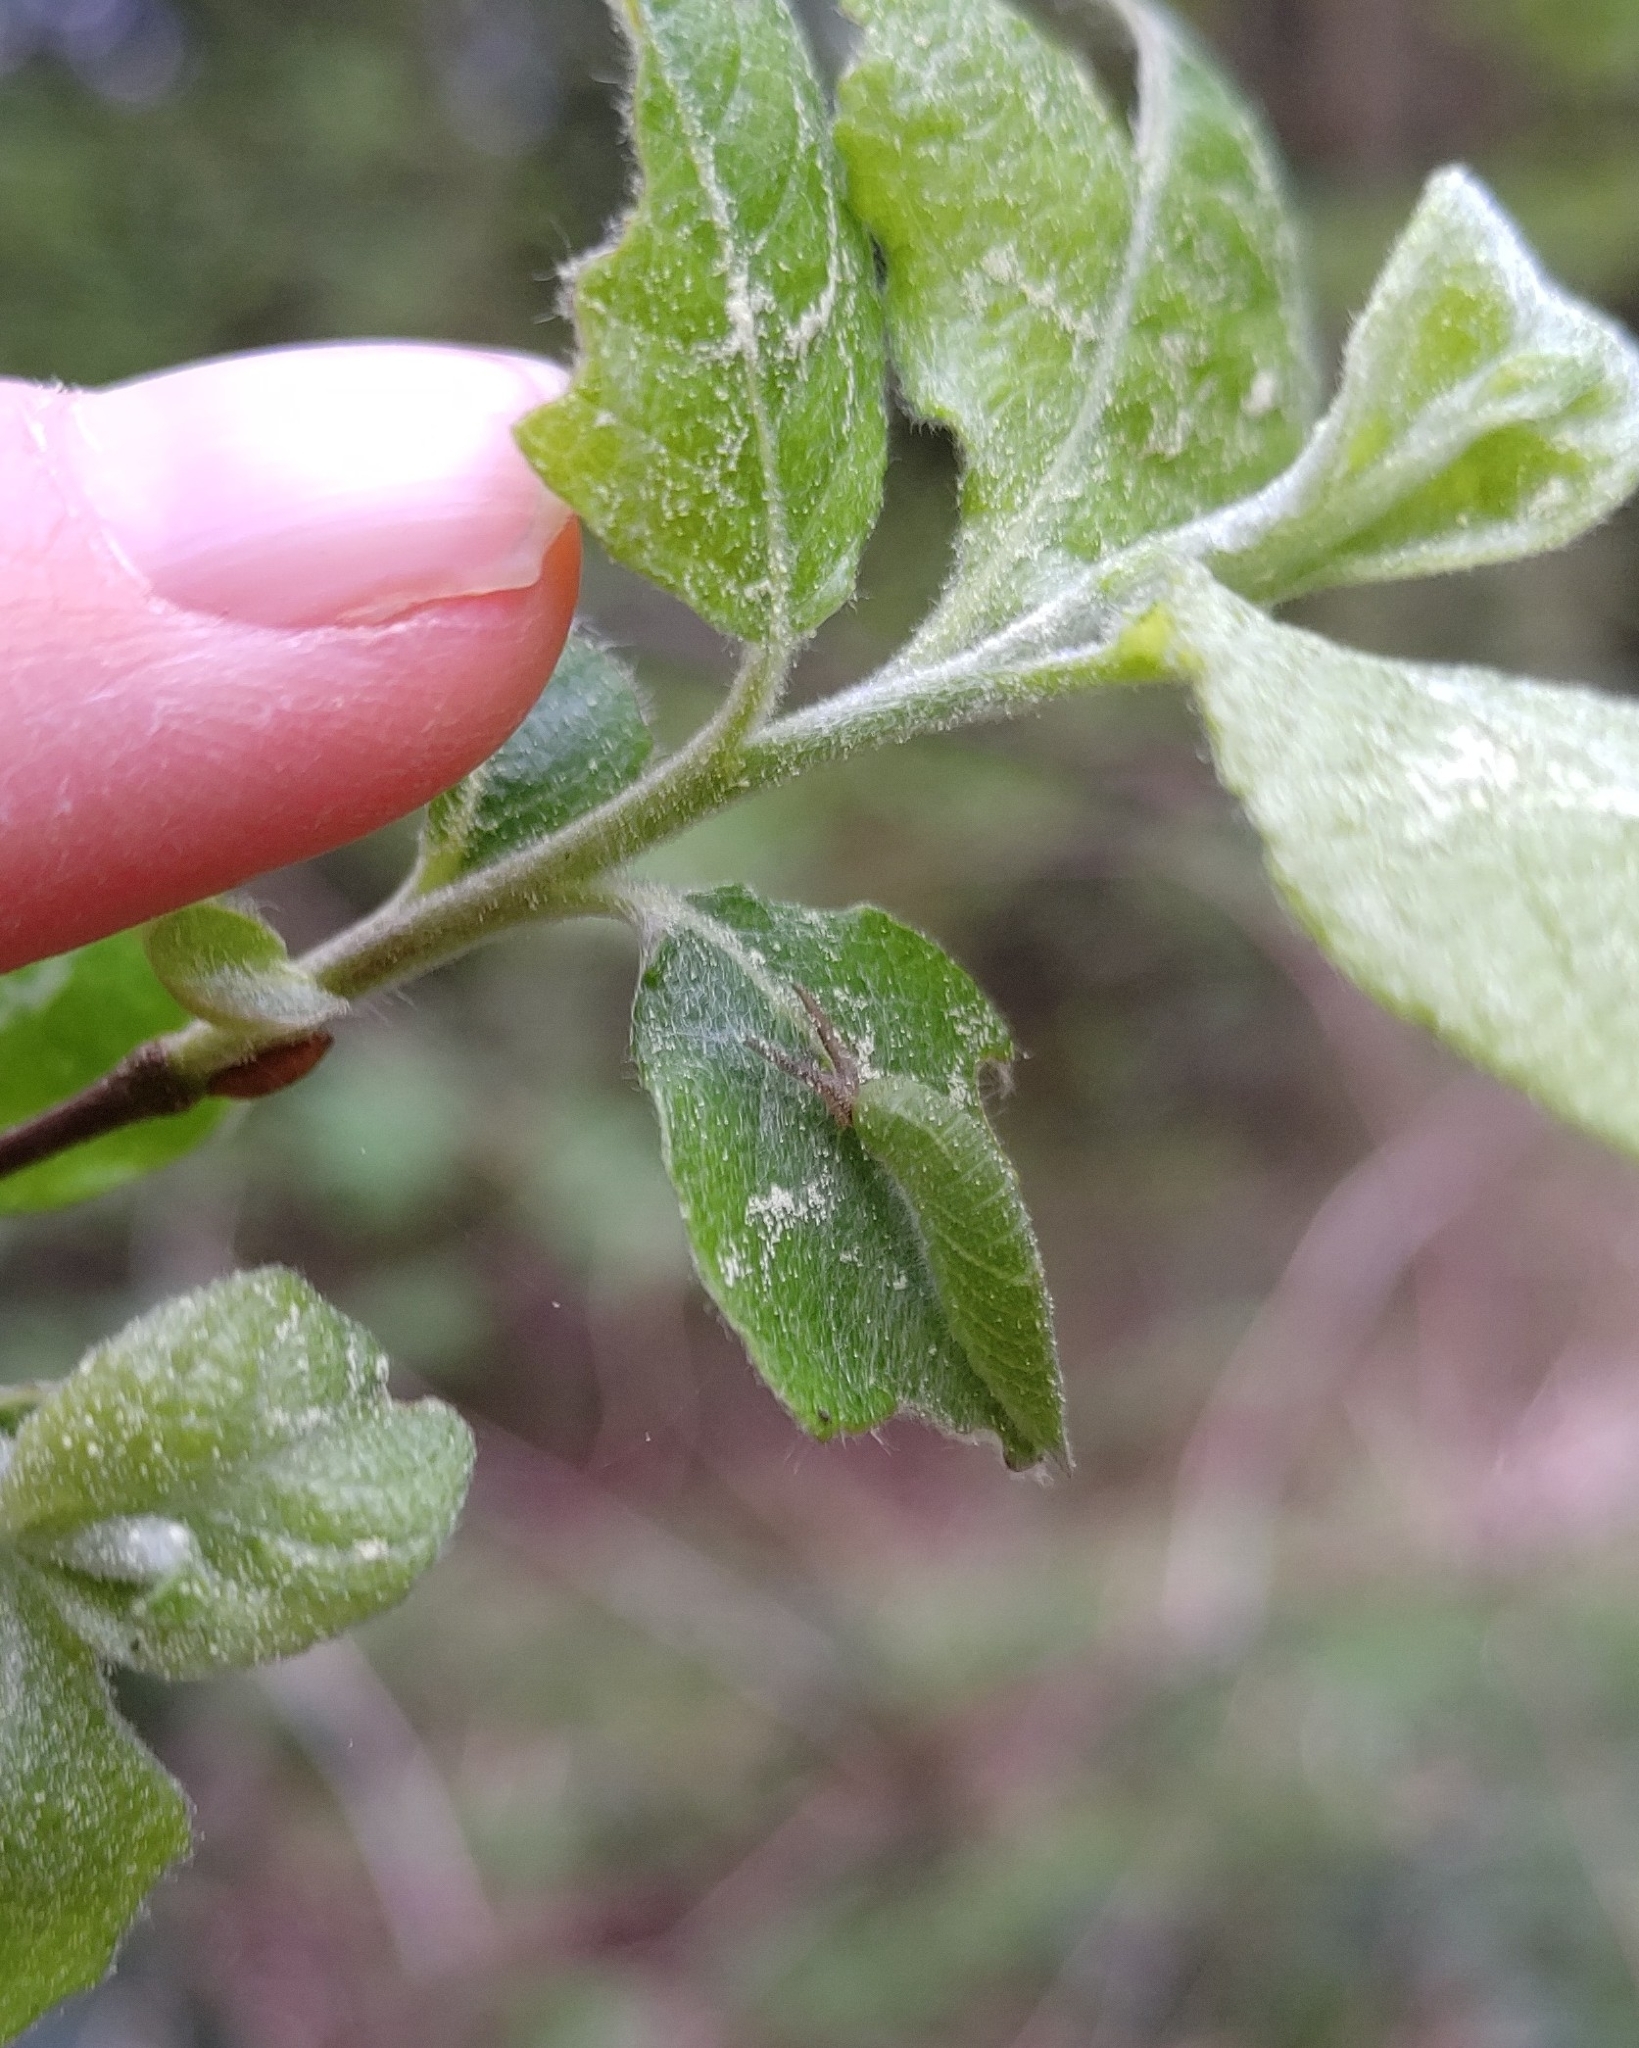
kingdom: Animalia
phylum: Arthropoda
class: Insecta
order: Lepidoptera
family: Nymphalidae
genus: Apatura
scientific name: Apatura iris
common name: Purple emperor
